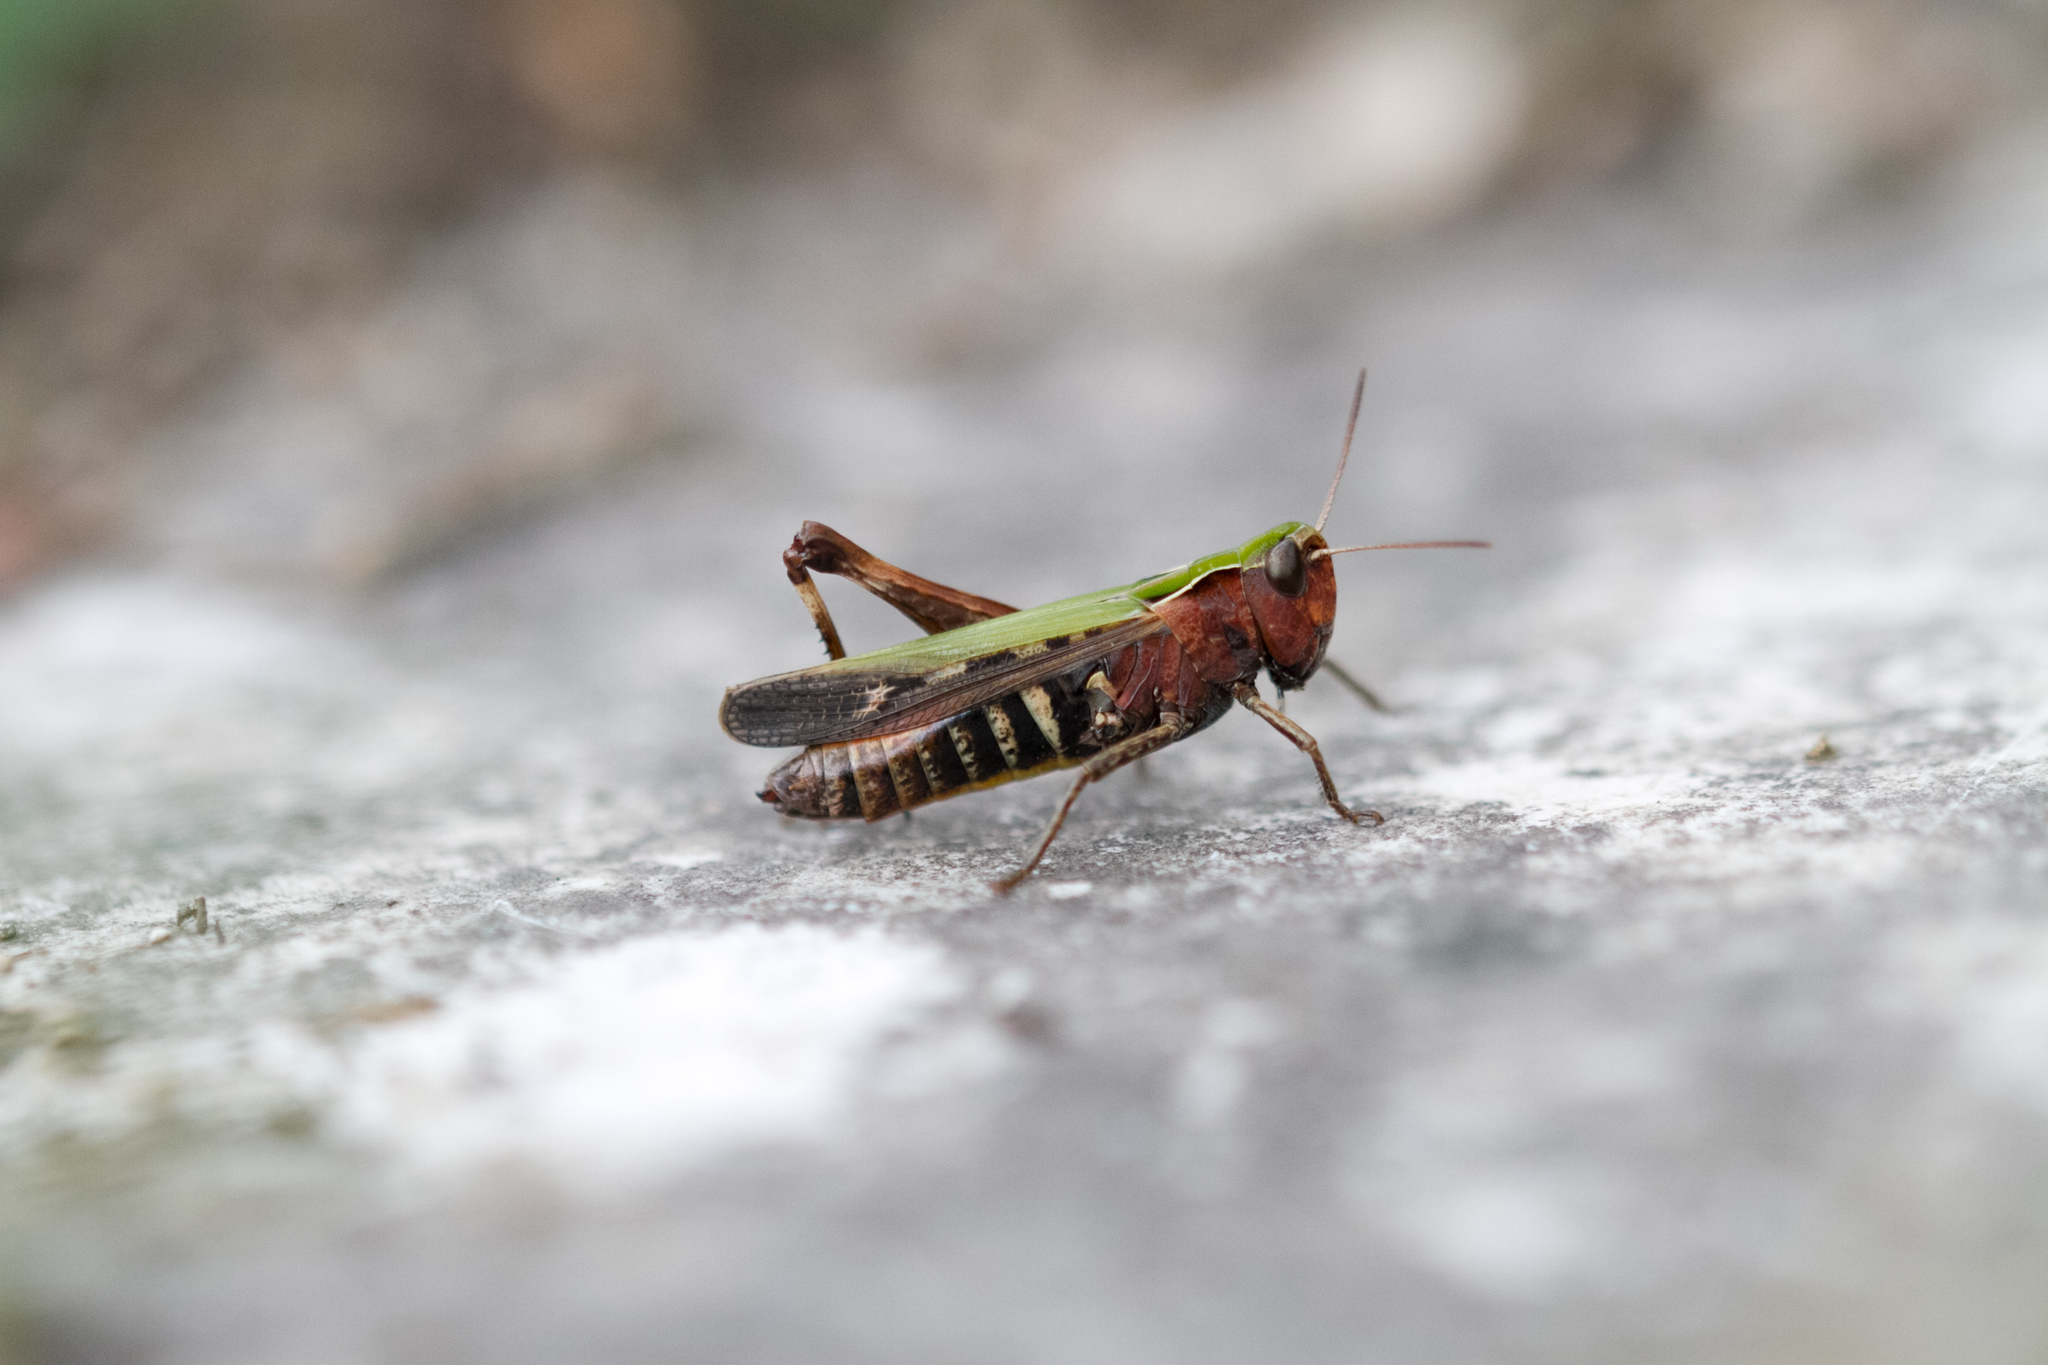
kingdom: Animalia
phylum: Arthropoda
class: Insecta
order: Orthoptera
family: Acrididae
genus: Omocestus
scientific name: Omocestus rufipes
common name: Woodland grasshopper
